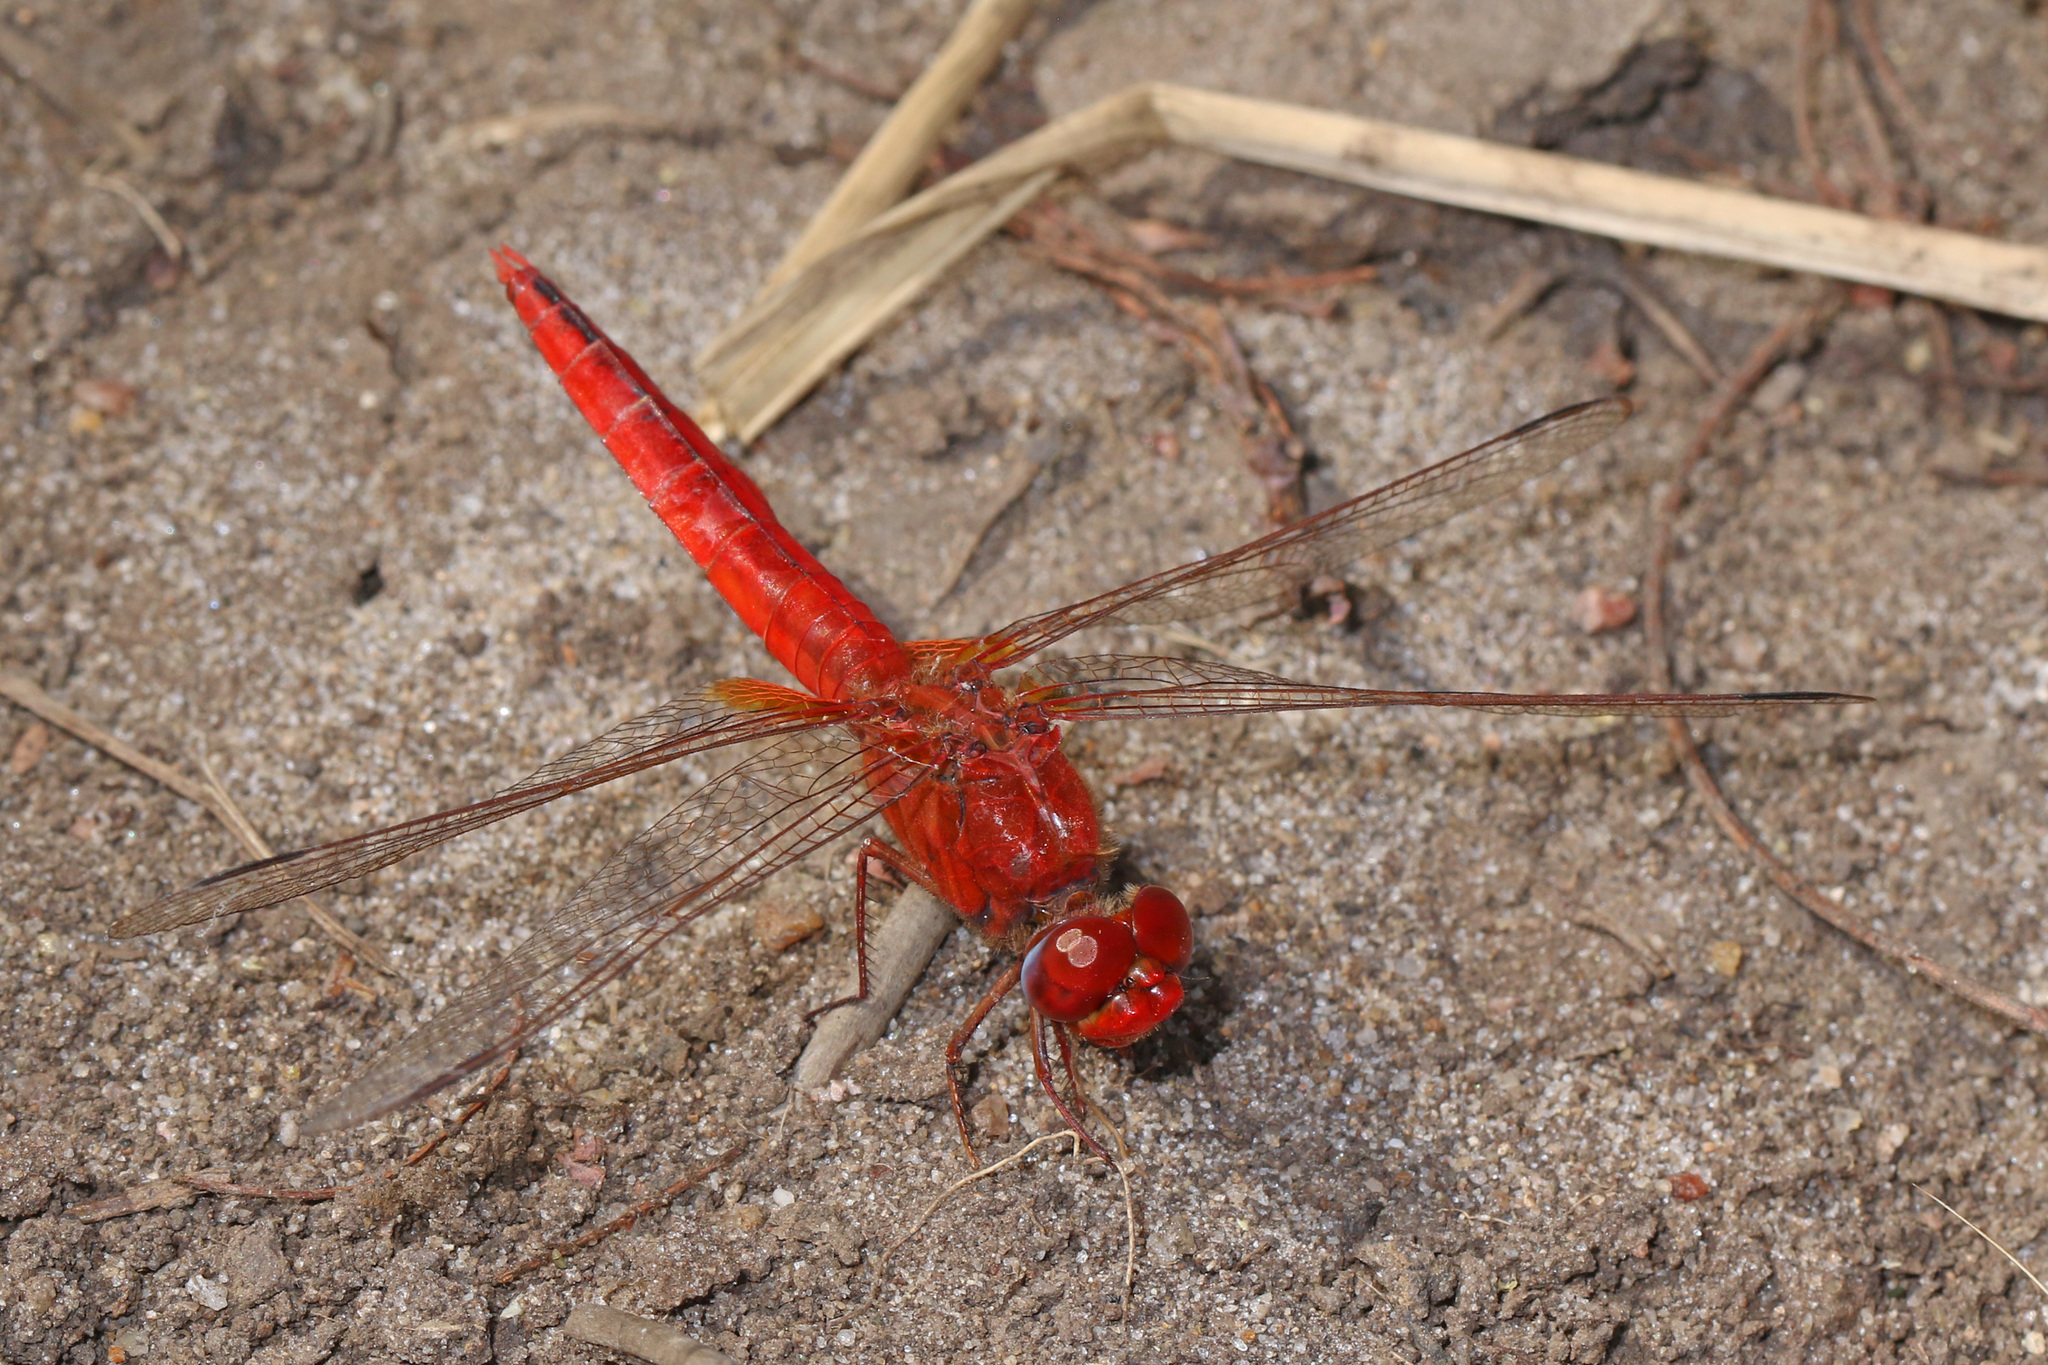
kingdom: Animalia
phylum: Arthropoda
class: Insecta
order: Odonata
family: Libellulidae
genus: Crocothemis
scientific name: Crocothemis erythraea
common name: Scarlet dragonfly
